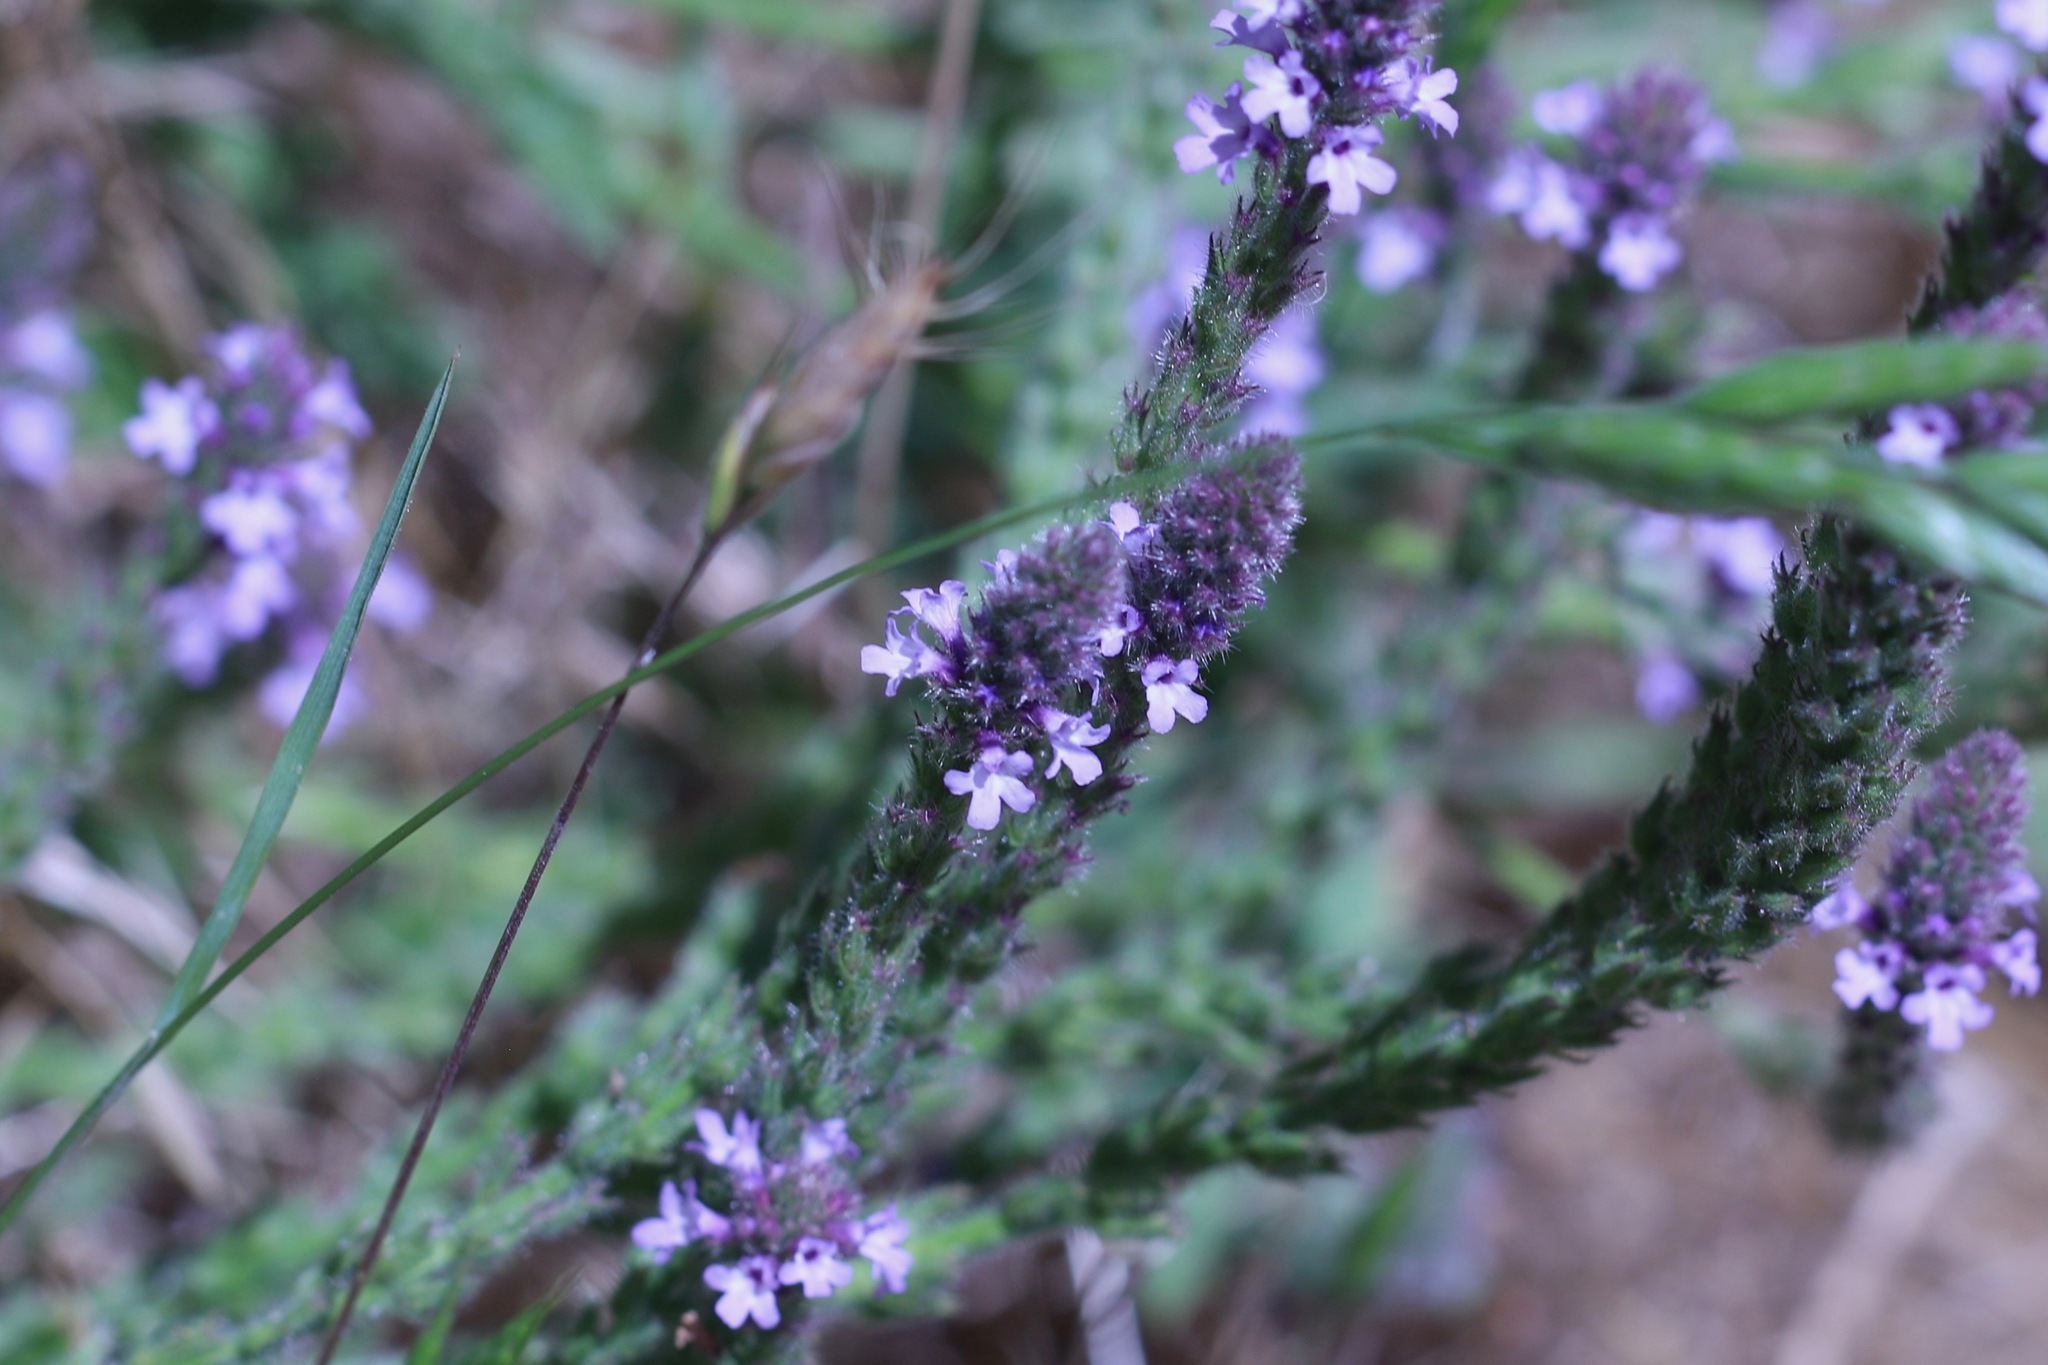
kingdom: Plantae
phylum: Tracheophyta
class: Magnoliopsida
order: Lamiales
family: Verbenaceae
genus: Verbena
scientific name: Verbena lasiostachys
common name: Vervain
